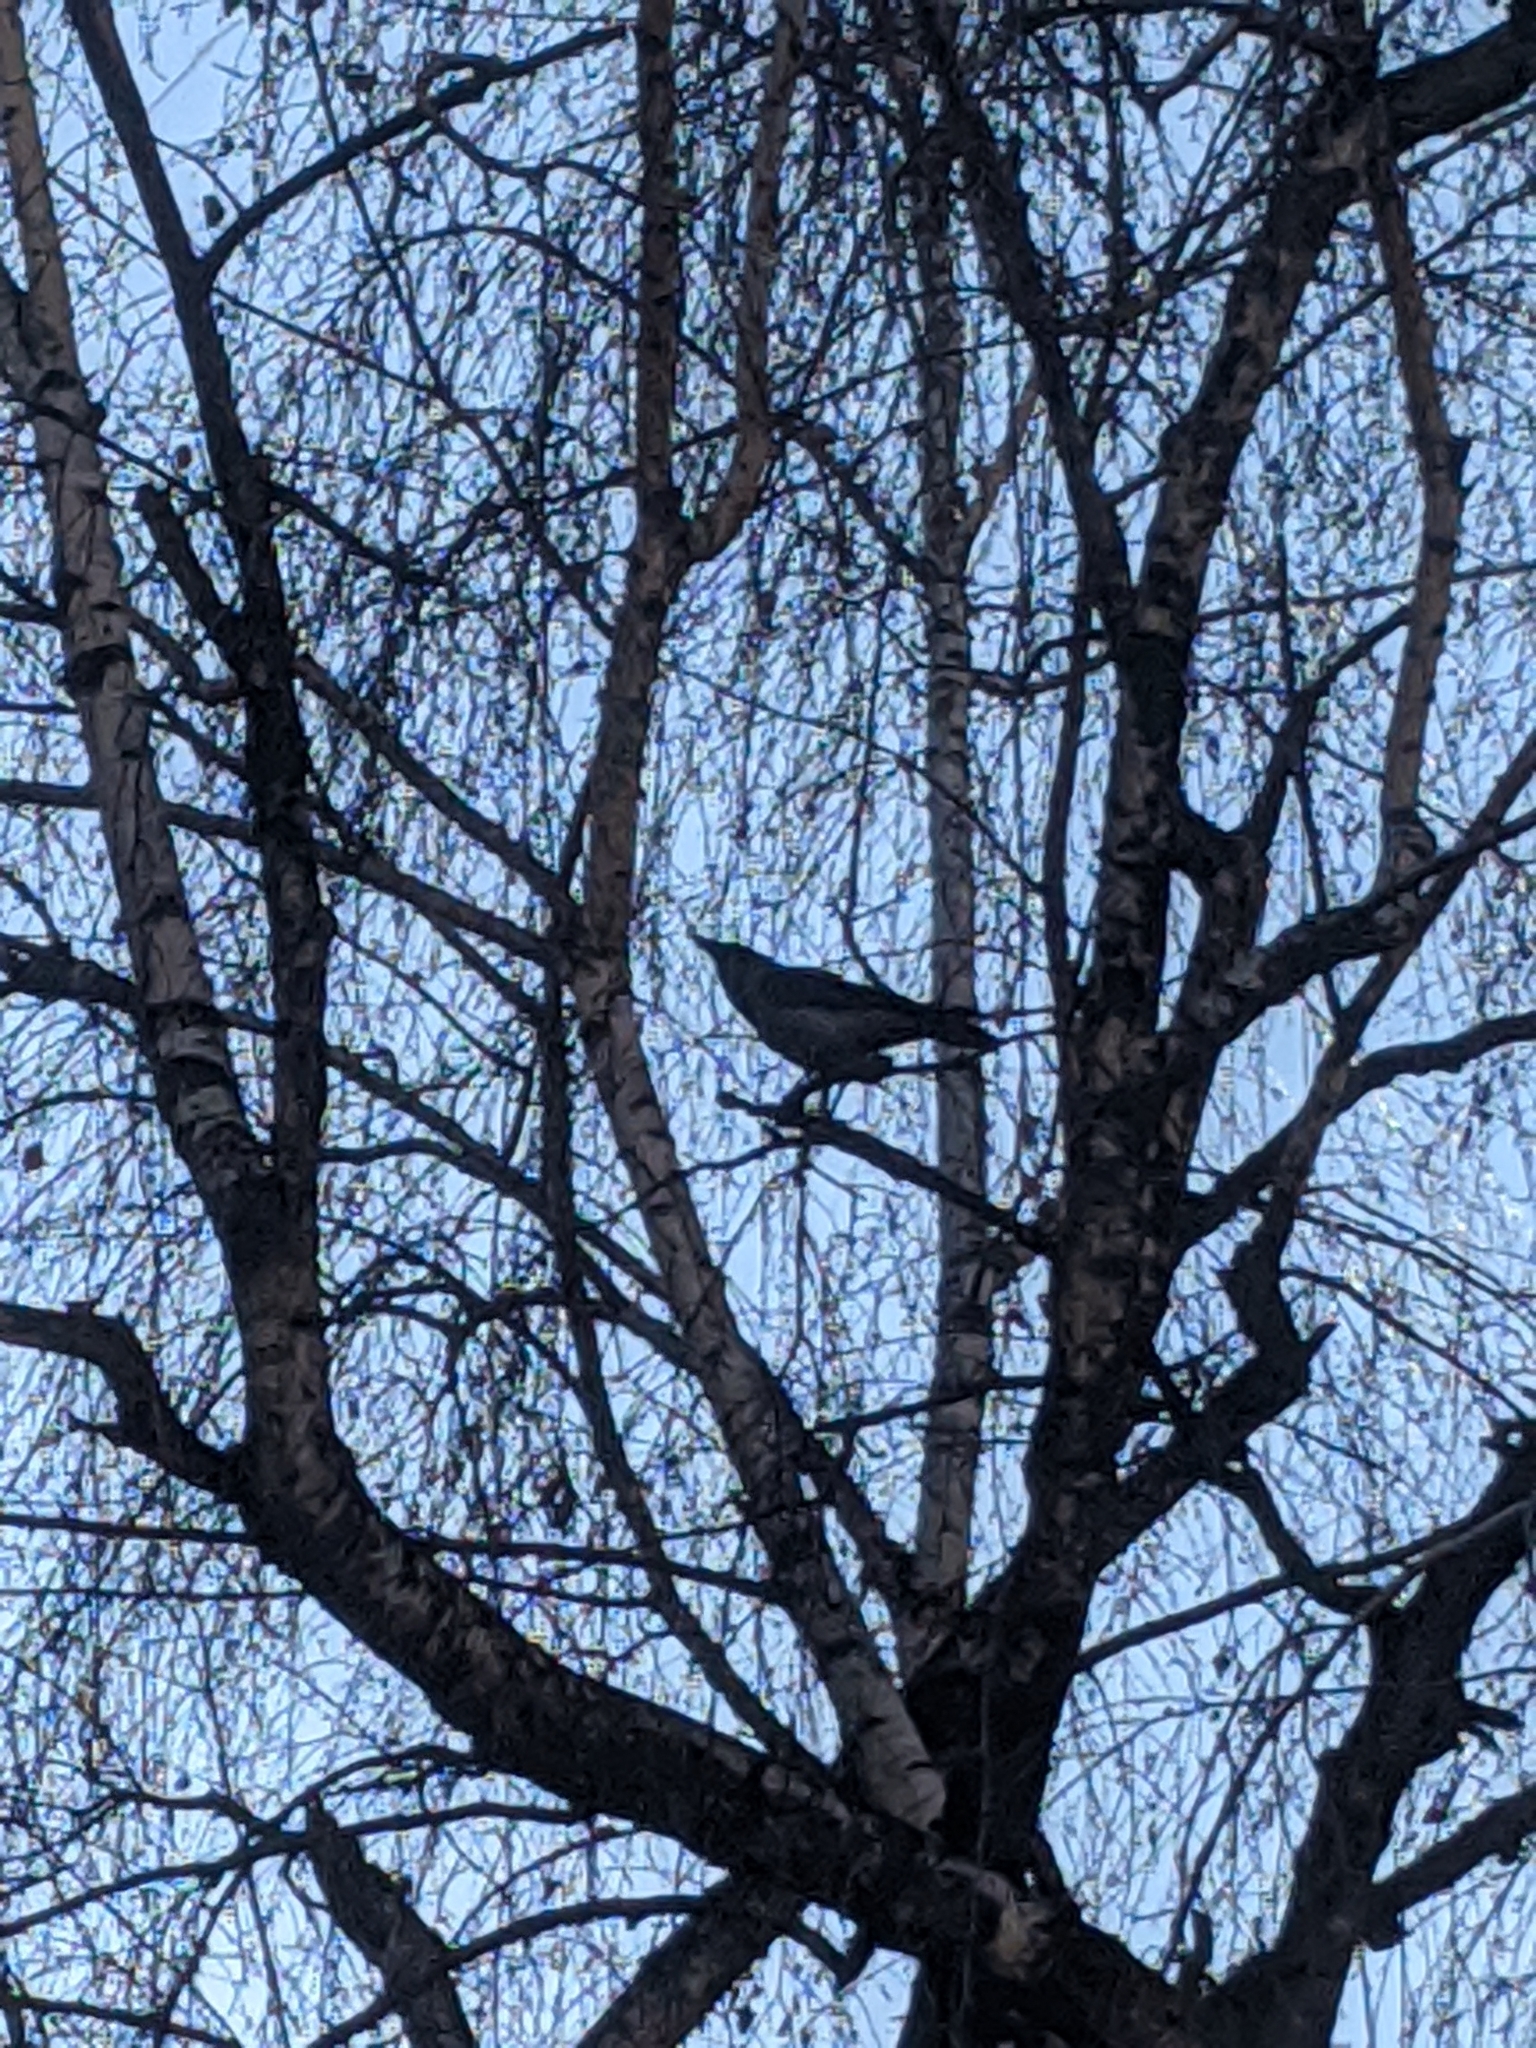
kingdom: Animalia
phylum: Chordata
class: Aves
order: Passeriformes
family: Corvidae
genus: Corvus
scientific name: Corvus cornix
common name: Hooded crow
